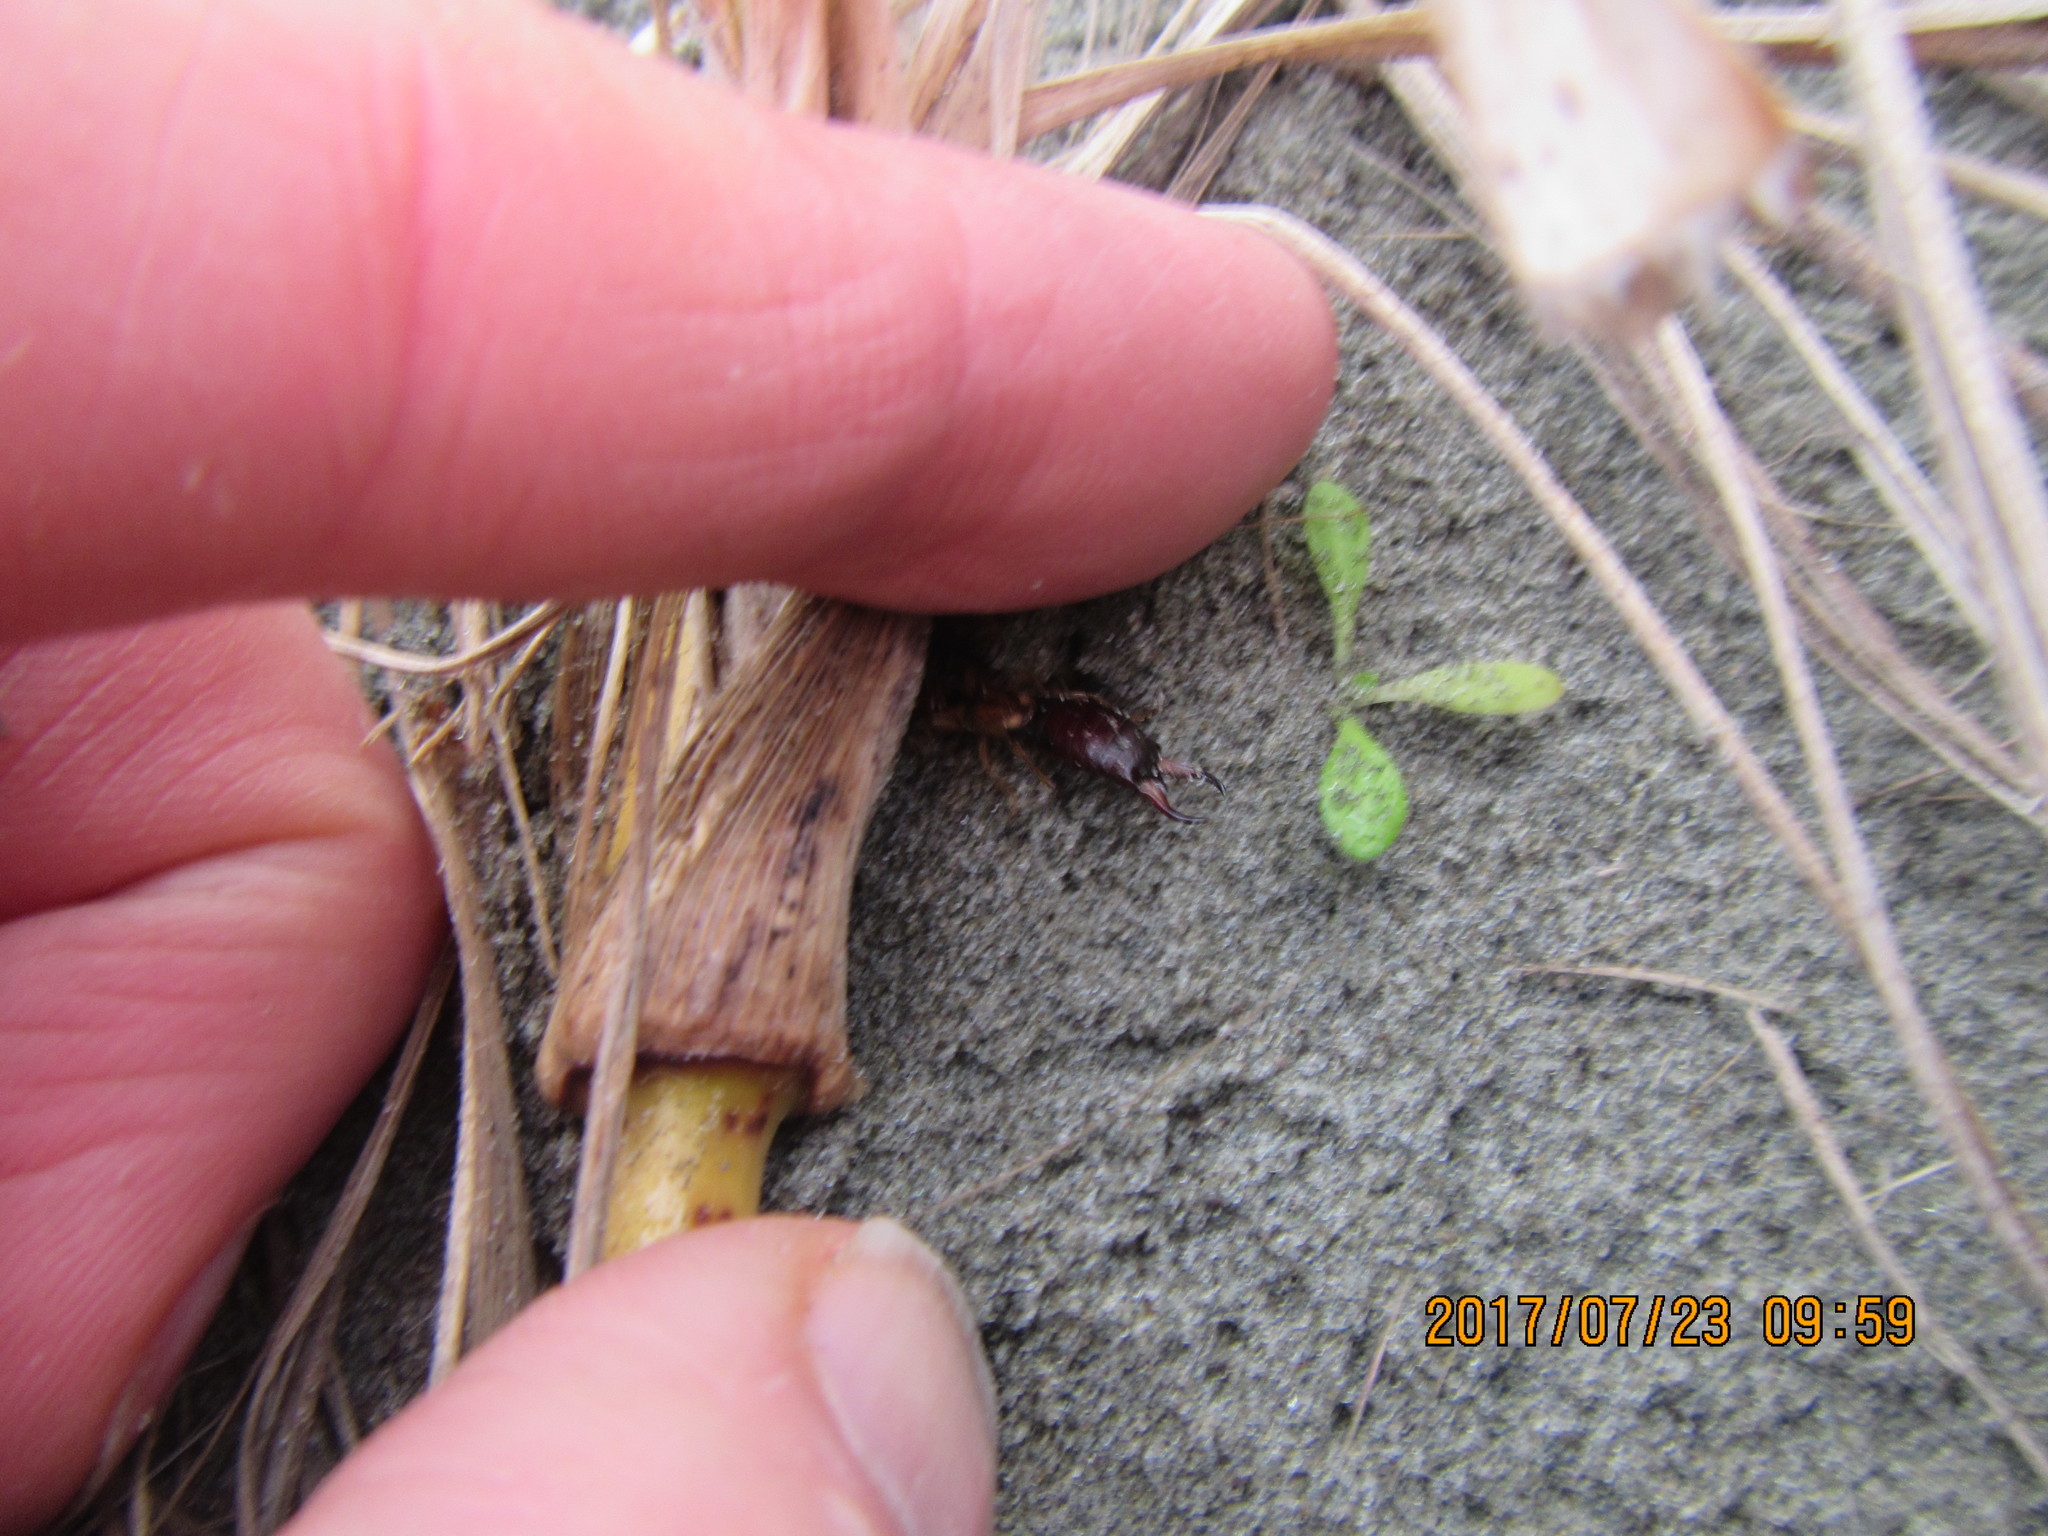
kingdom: Animalia
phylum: Arthropoda
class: Insecta
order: Dermaptera
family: Forficulidae
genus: Forficula
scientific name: Forficula
